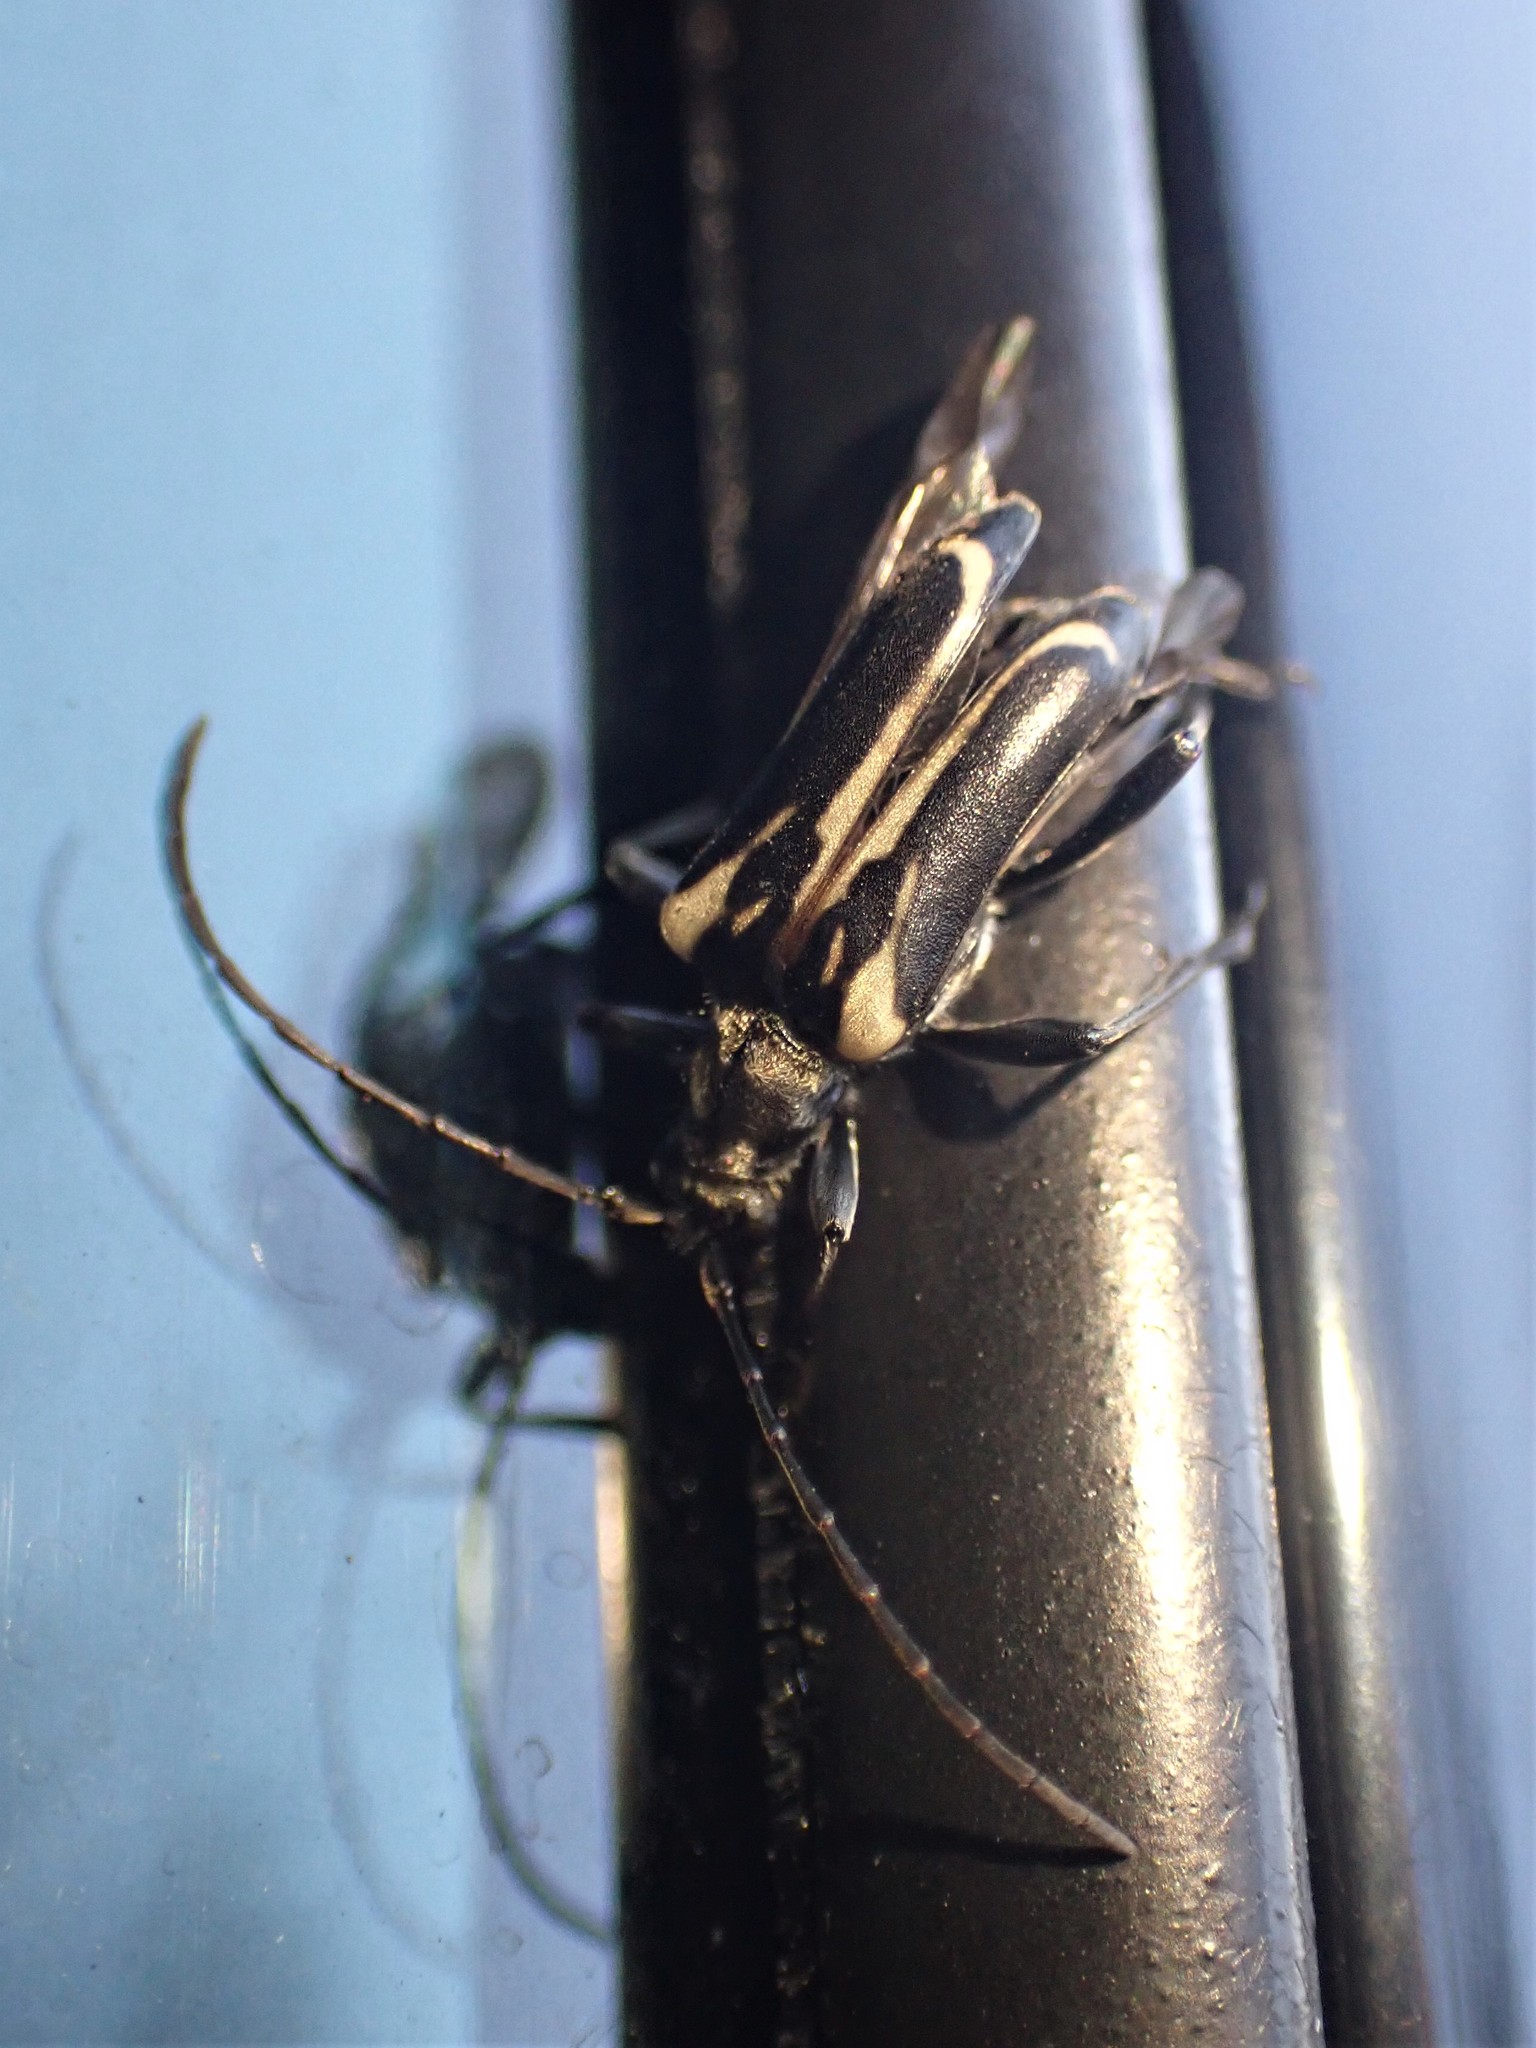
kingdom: Animalia
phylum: Arthropoda
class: Insecta
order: Coleoptera
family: Cerambycidae
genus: Evodinus
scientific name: Evodinus monticola
